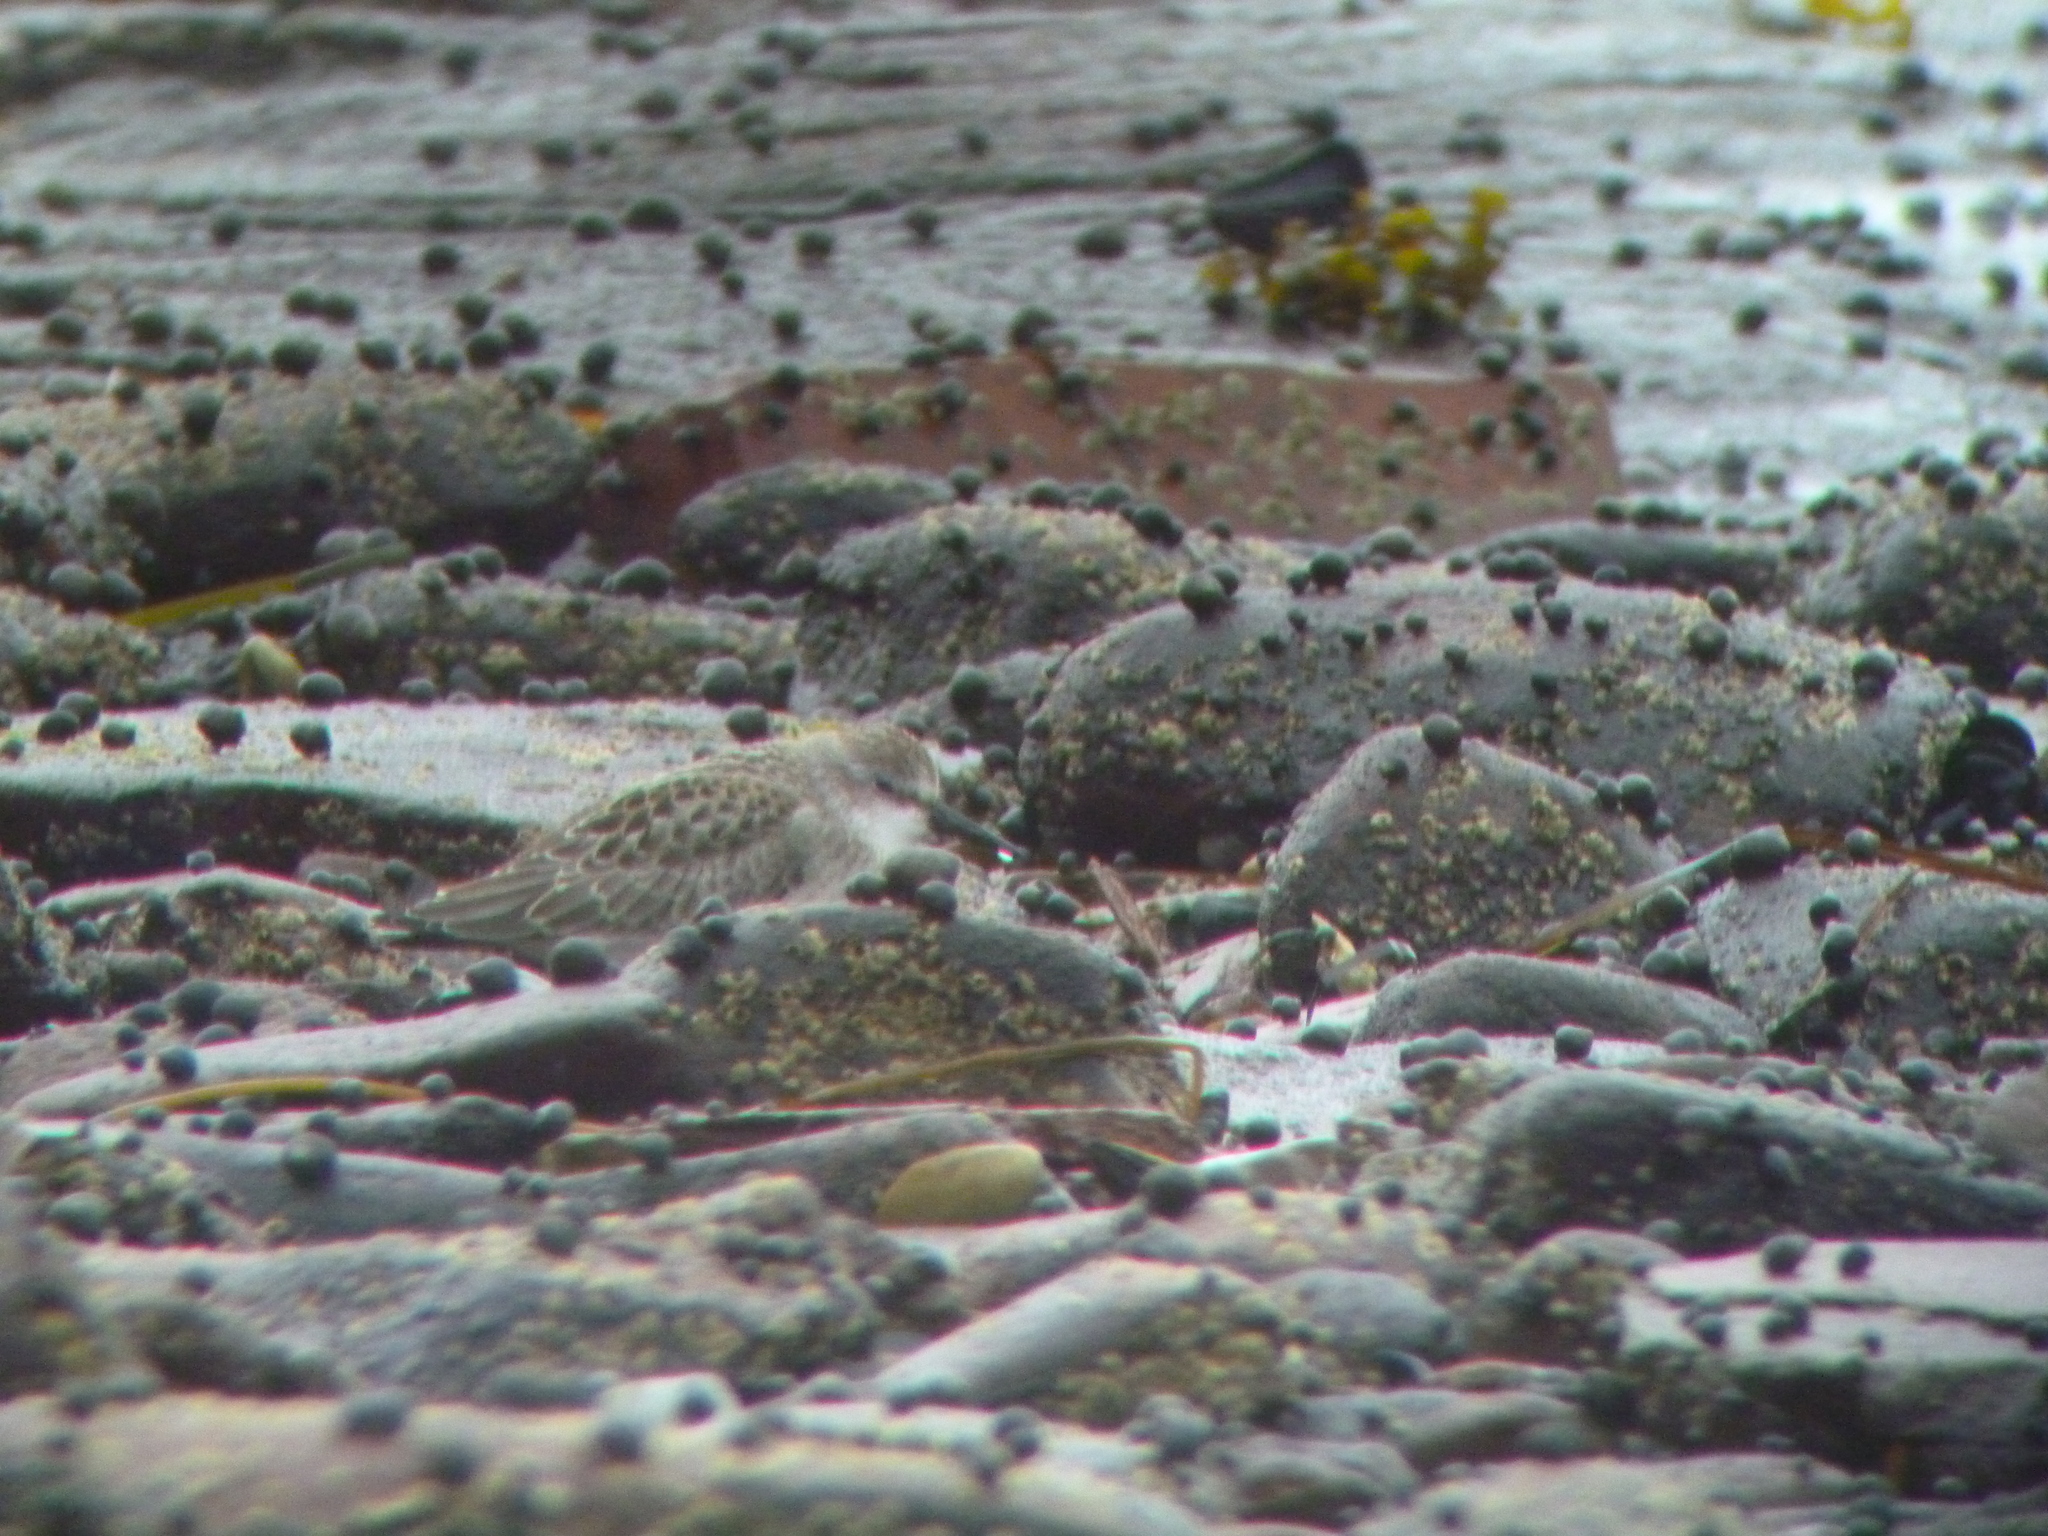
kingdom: Animalia
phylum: Chordata
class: Aves
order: Charadriiformes
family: Scolopacidae
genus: Calidris
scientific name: Calidris pusilla
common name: Semipalmated sandpiper
